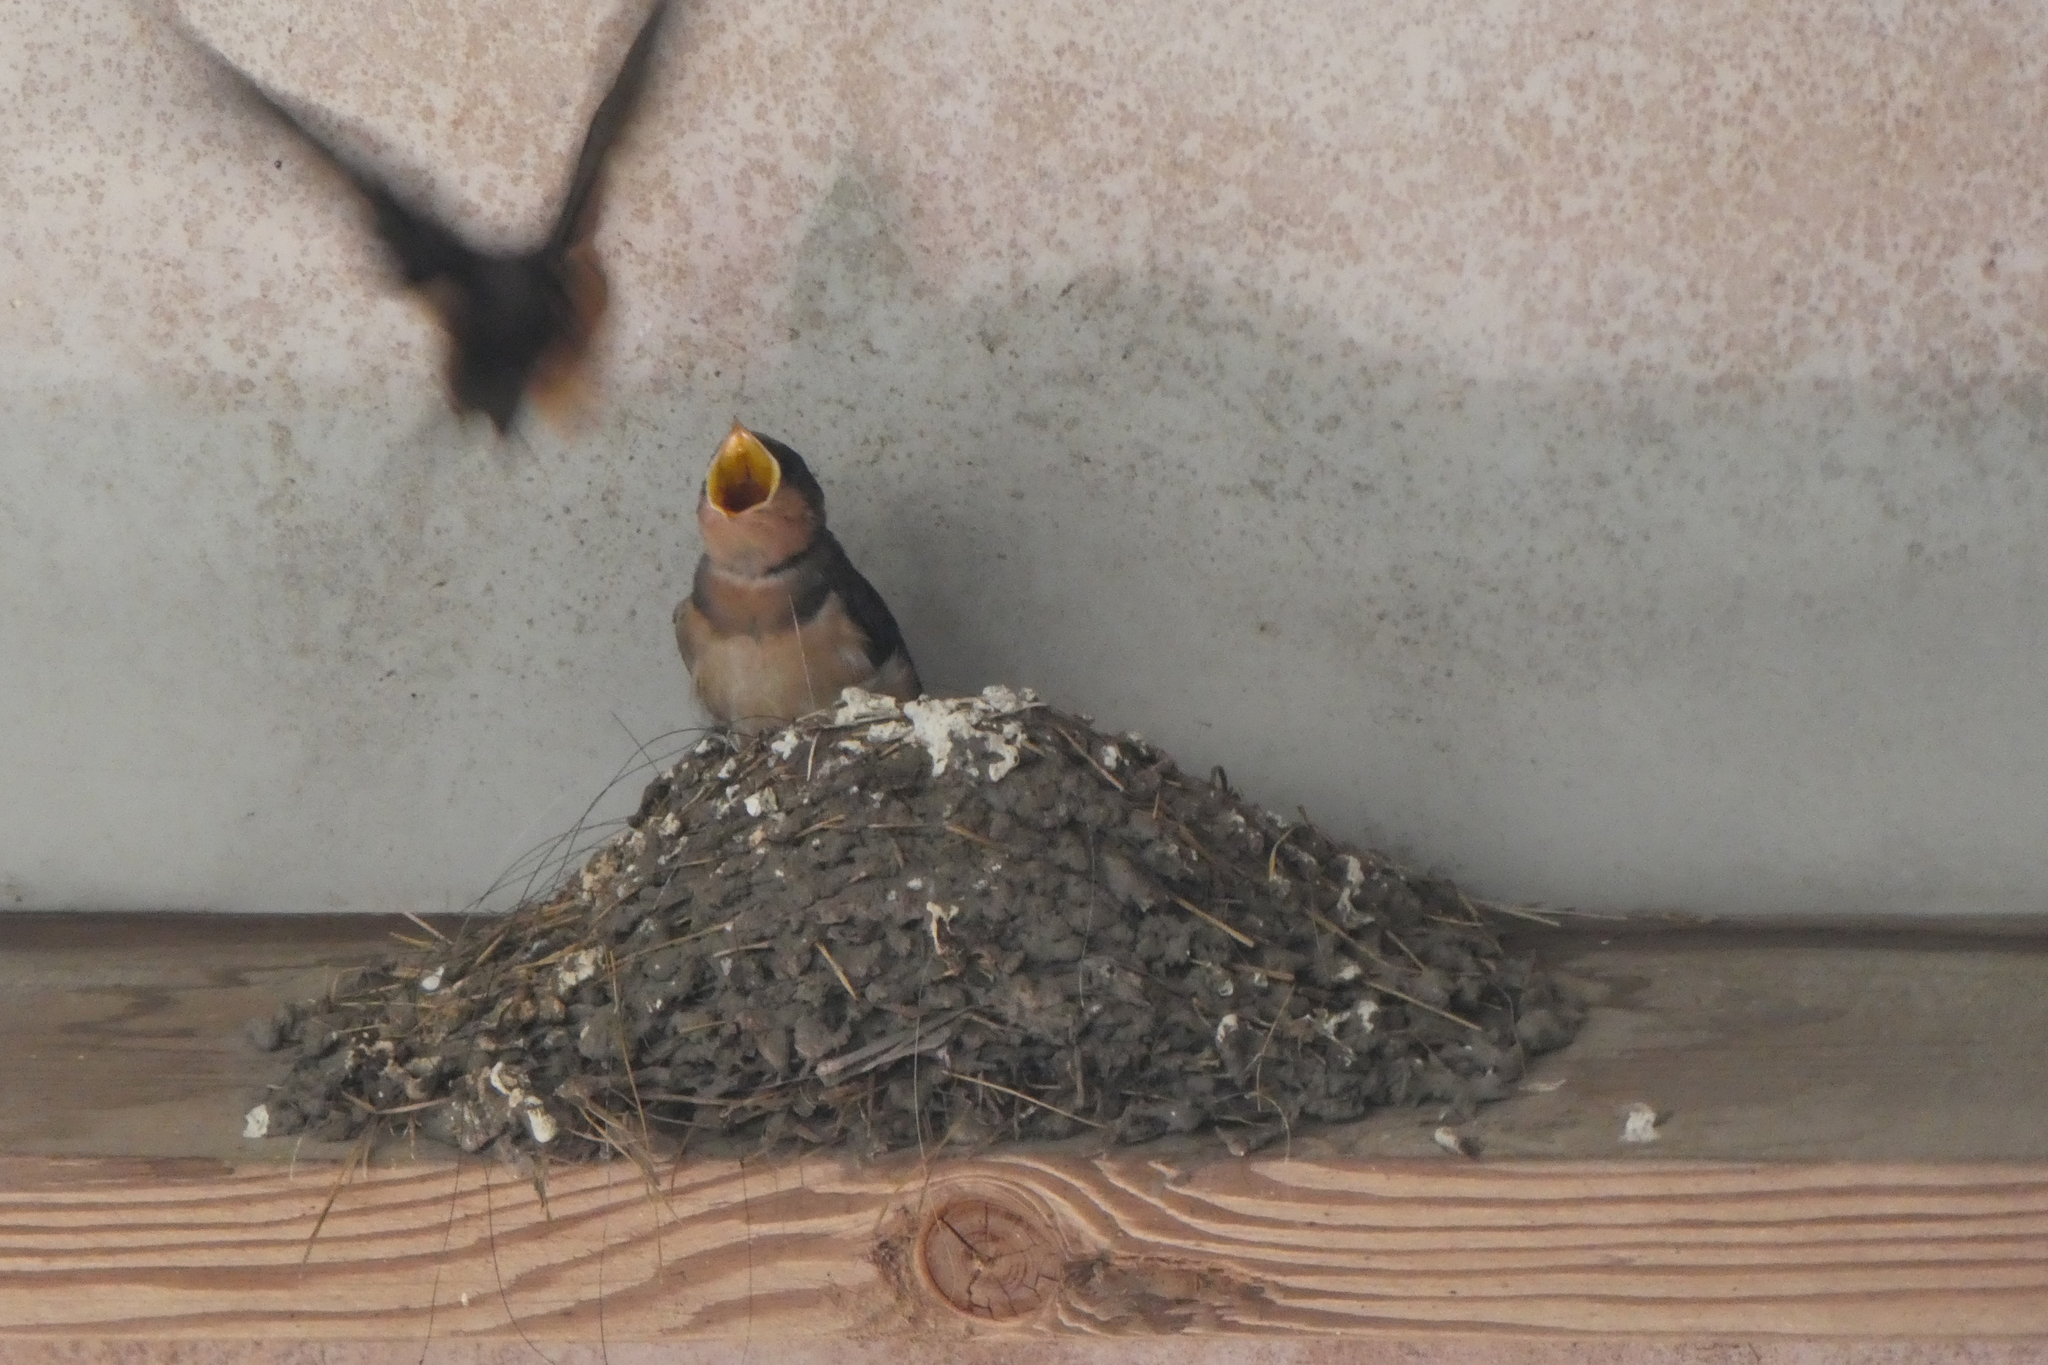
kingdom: Animalia
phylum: Chordata
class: Aves
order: Passeriformes
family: Hirundinidae
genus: Hirundo
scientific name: Hirundo rustica
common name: Barn swallow
